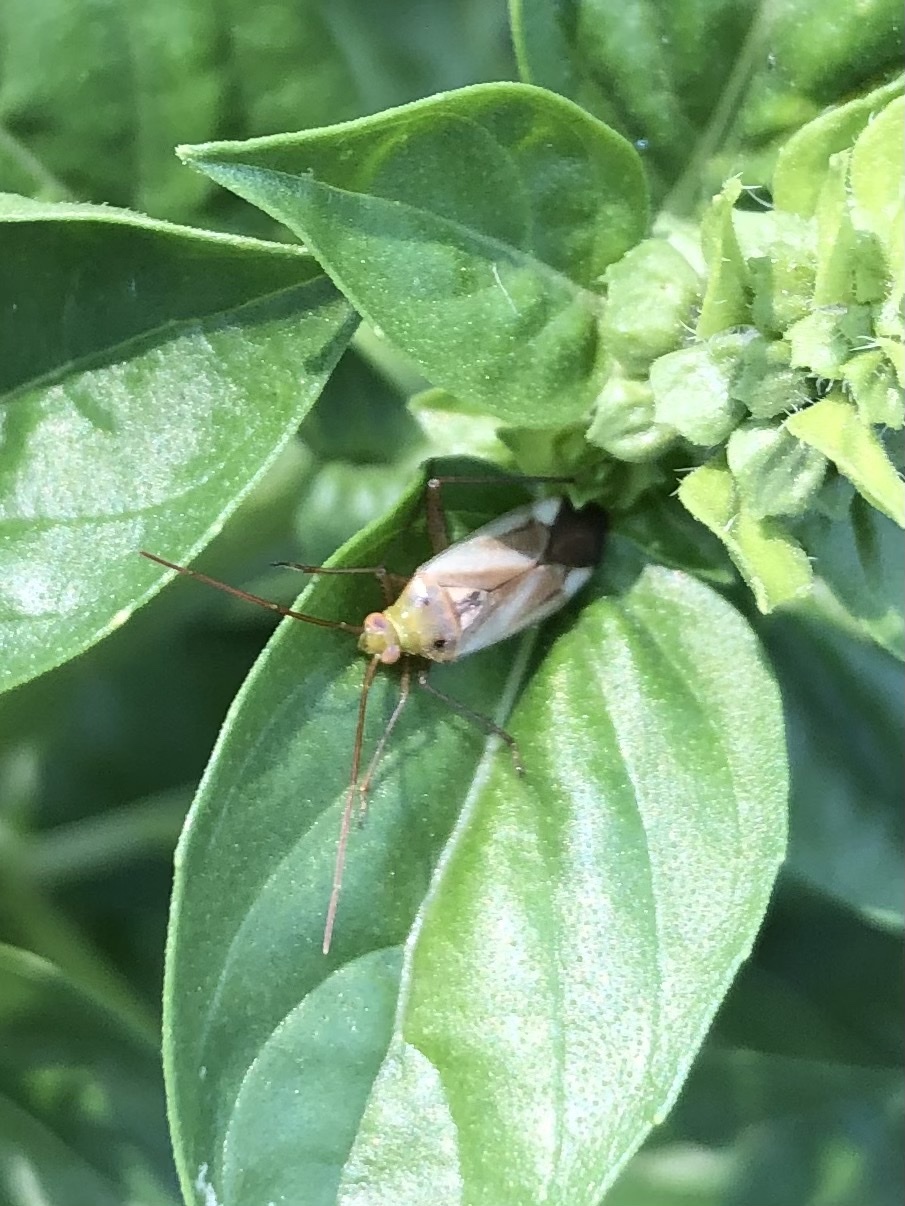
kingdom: Animalia
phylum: Arthropoda
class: Insecta
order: Hemiptera
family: Miridae
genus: Adelphocoris
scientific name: Adelphocoris lineolatus
